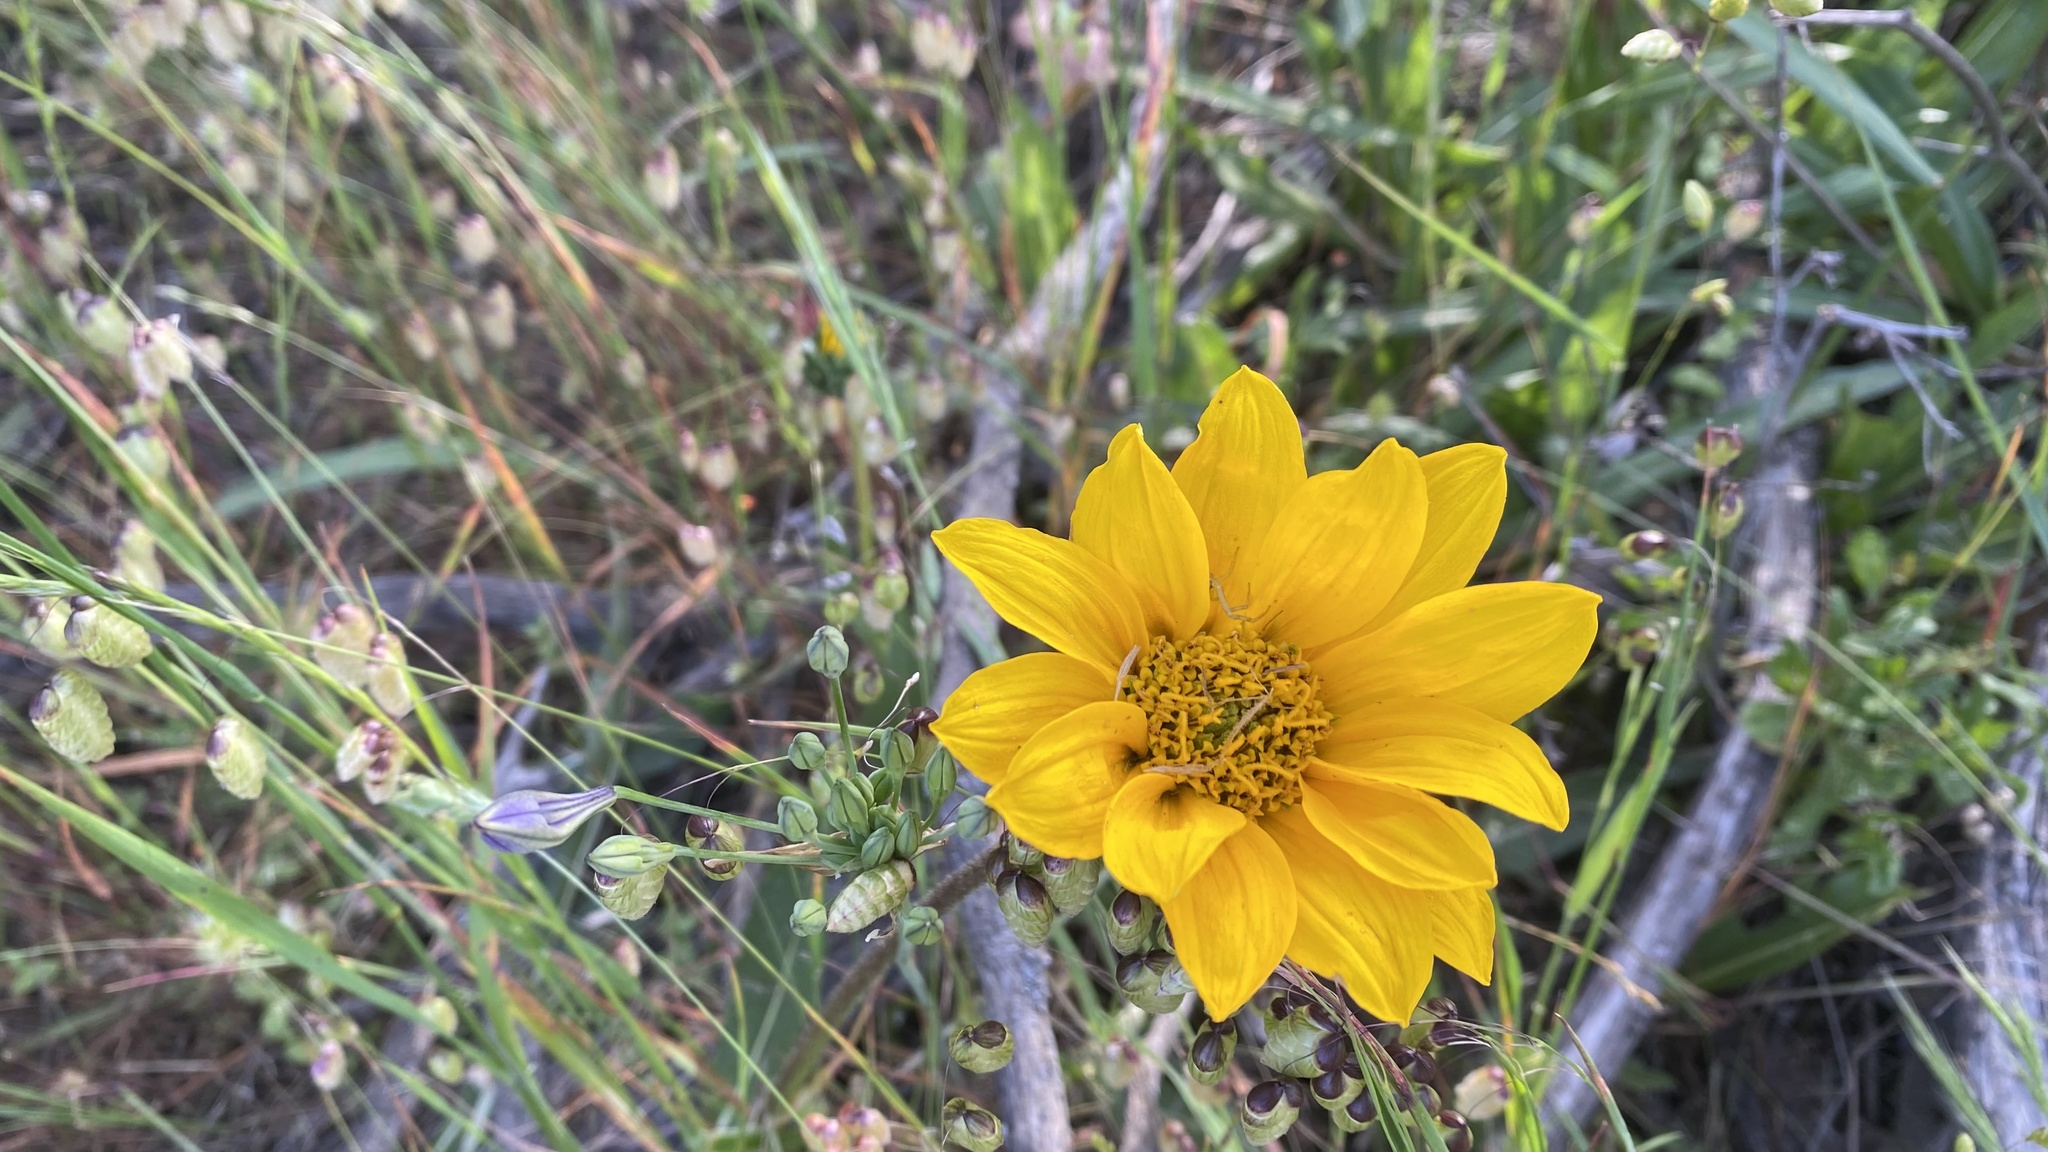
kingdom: Plantae
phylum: Tracheophyta
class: Magnoliopsida
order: Asterales
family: Asteraceae
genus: Wyethia
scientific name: Wyethia angustifolia
